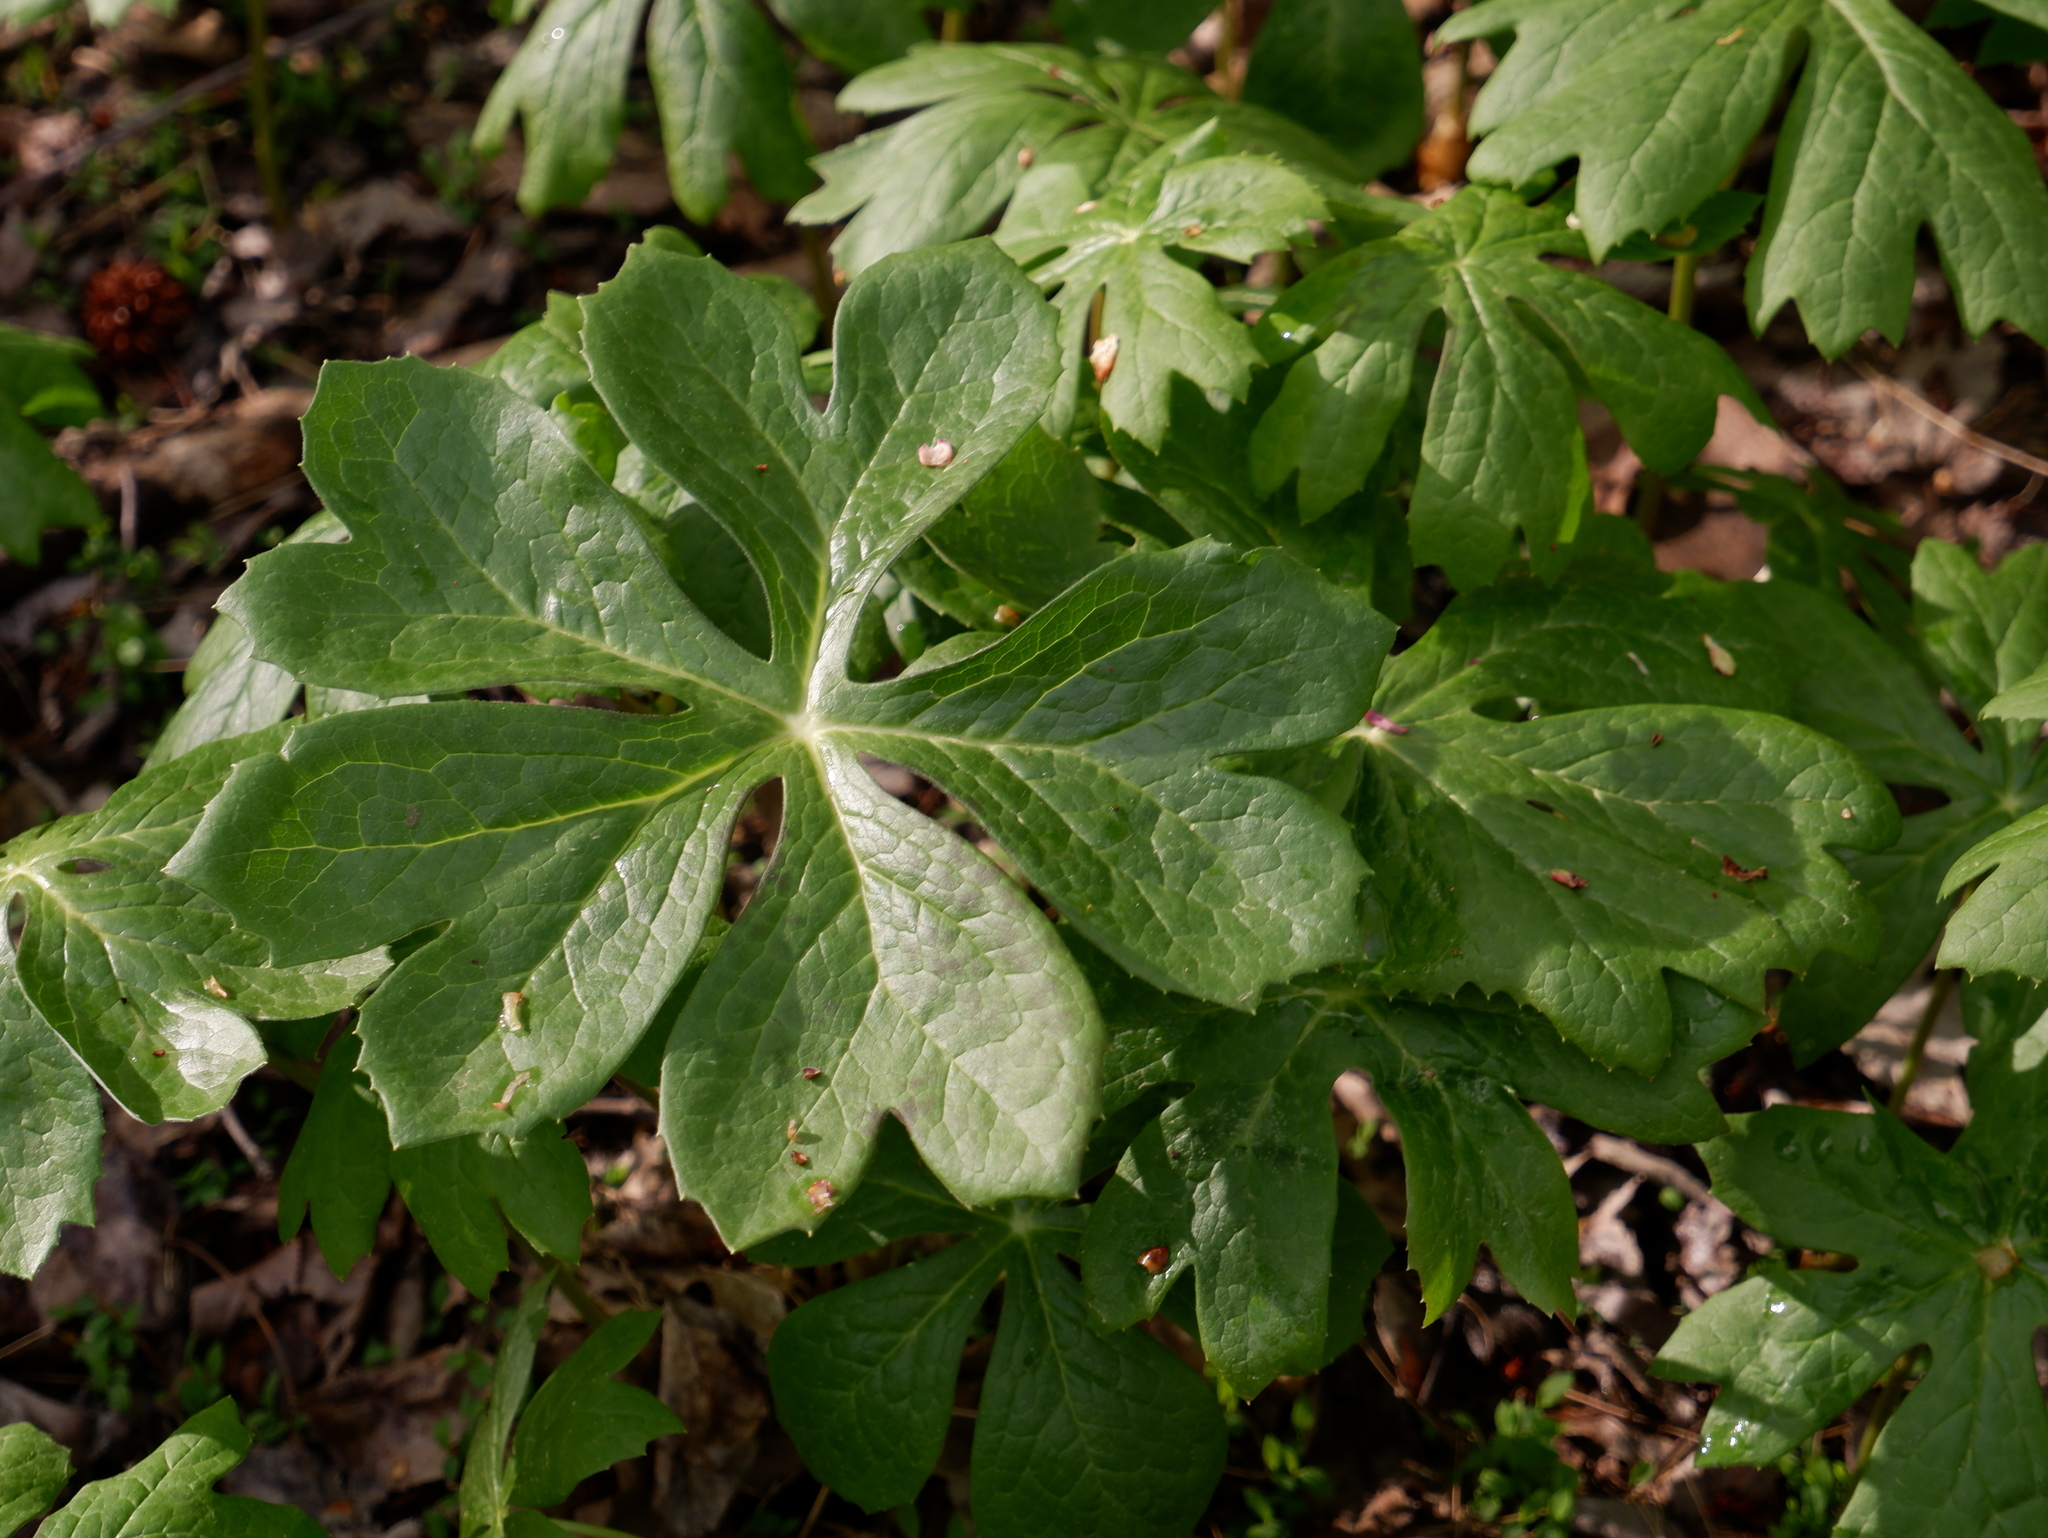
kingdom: Plantae
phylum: Tracheophyta
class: Magnoliopsida
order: Ranunculales
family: Berberidaceae
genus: Podophyllum
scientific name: Podophyllum peltatum
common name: Wild mandrake
